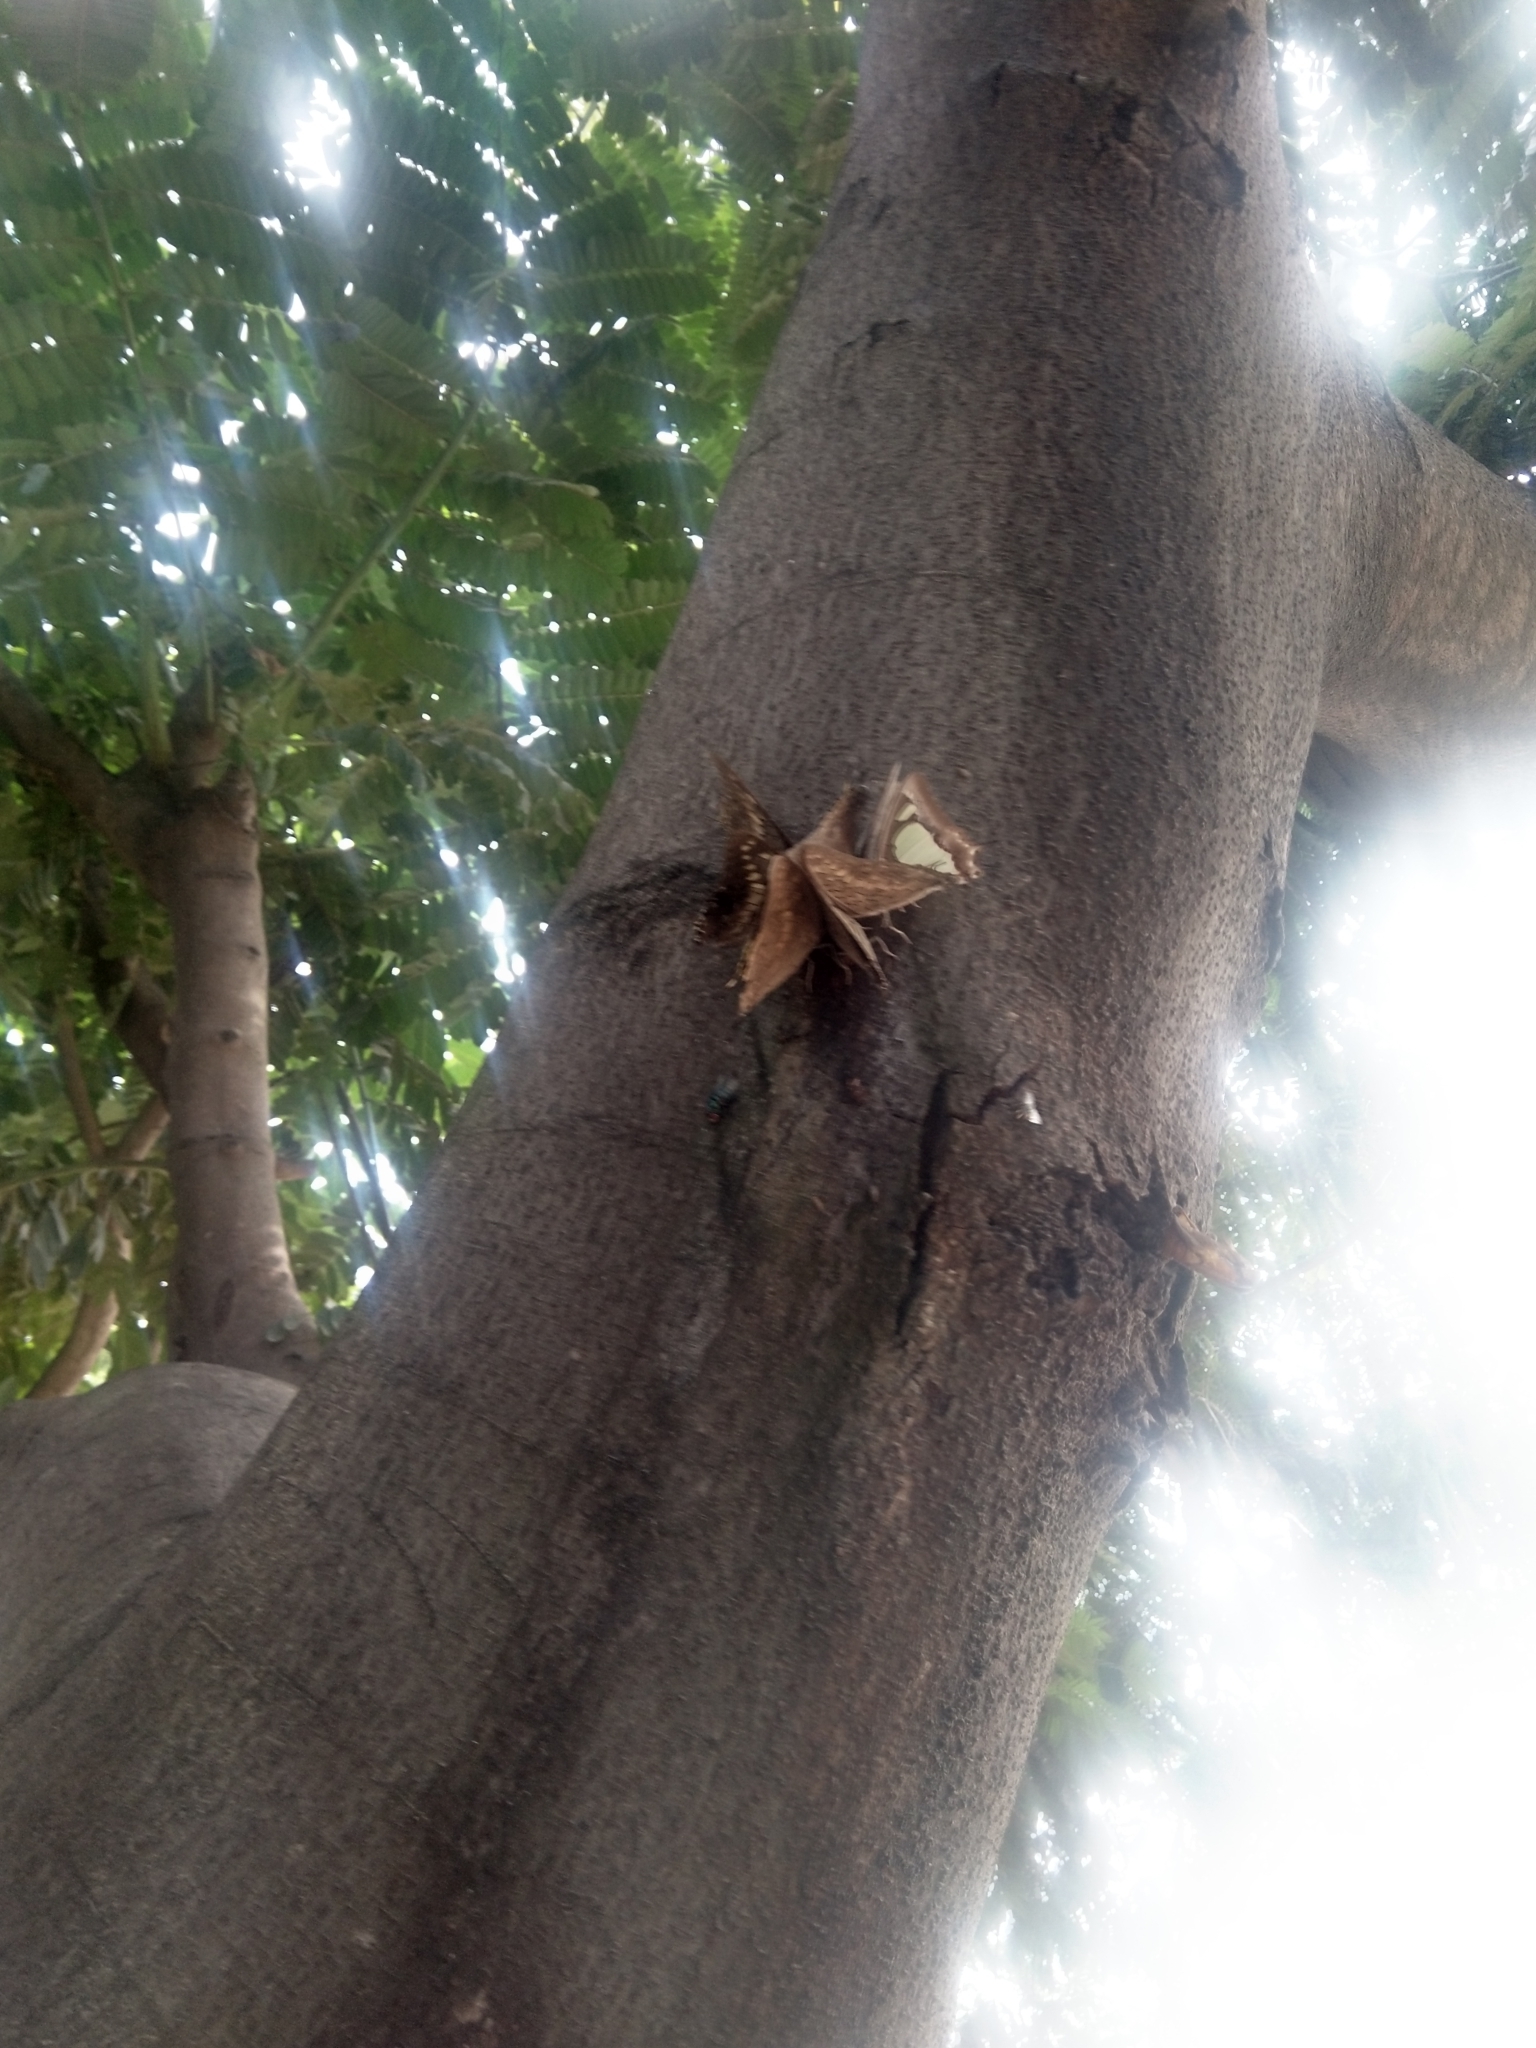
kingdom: Animalia
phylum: Arthropoda
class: Insecta
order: Lepidoptera
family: Nymphalidae
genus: Polyura
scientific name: Polyura agrarius
